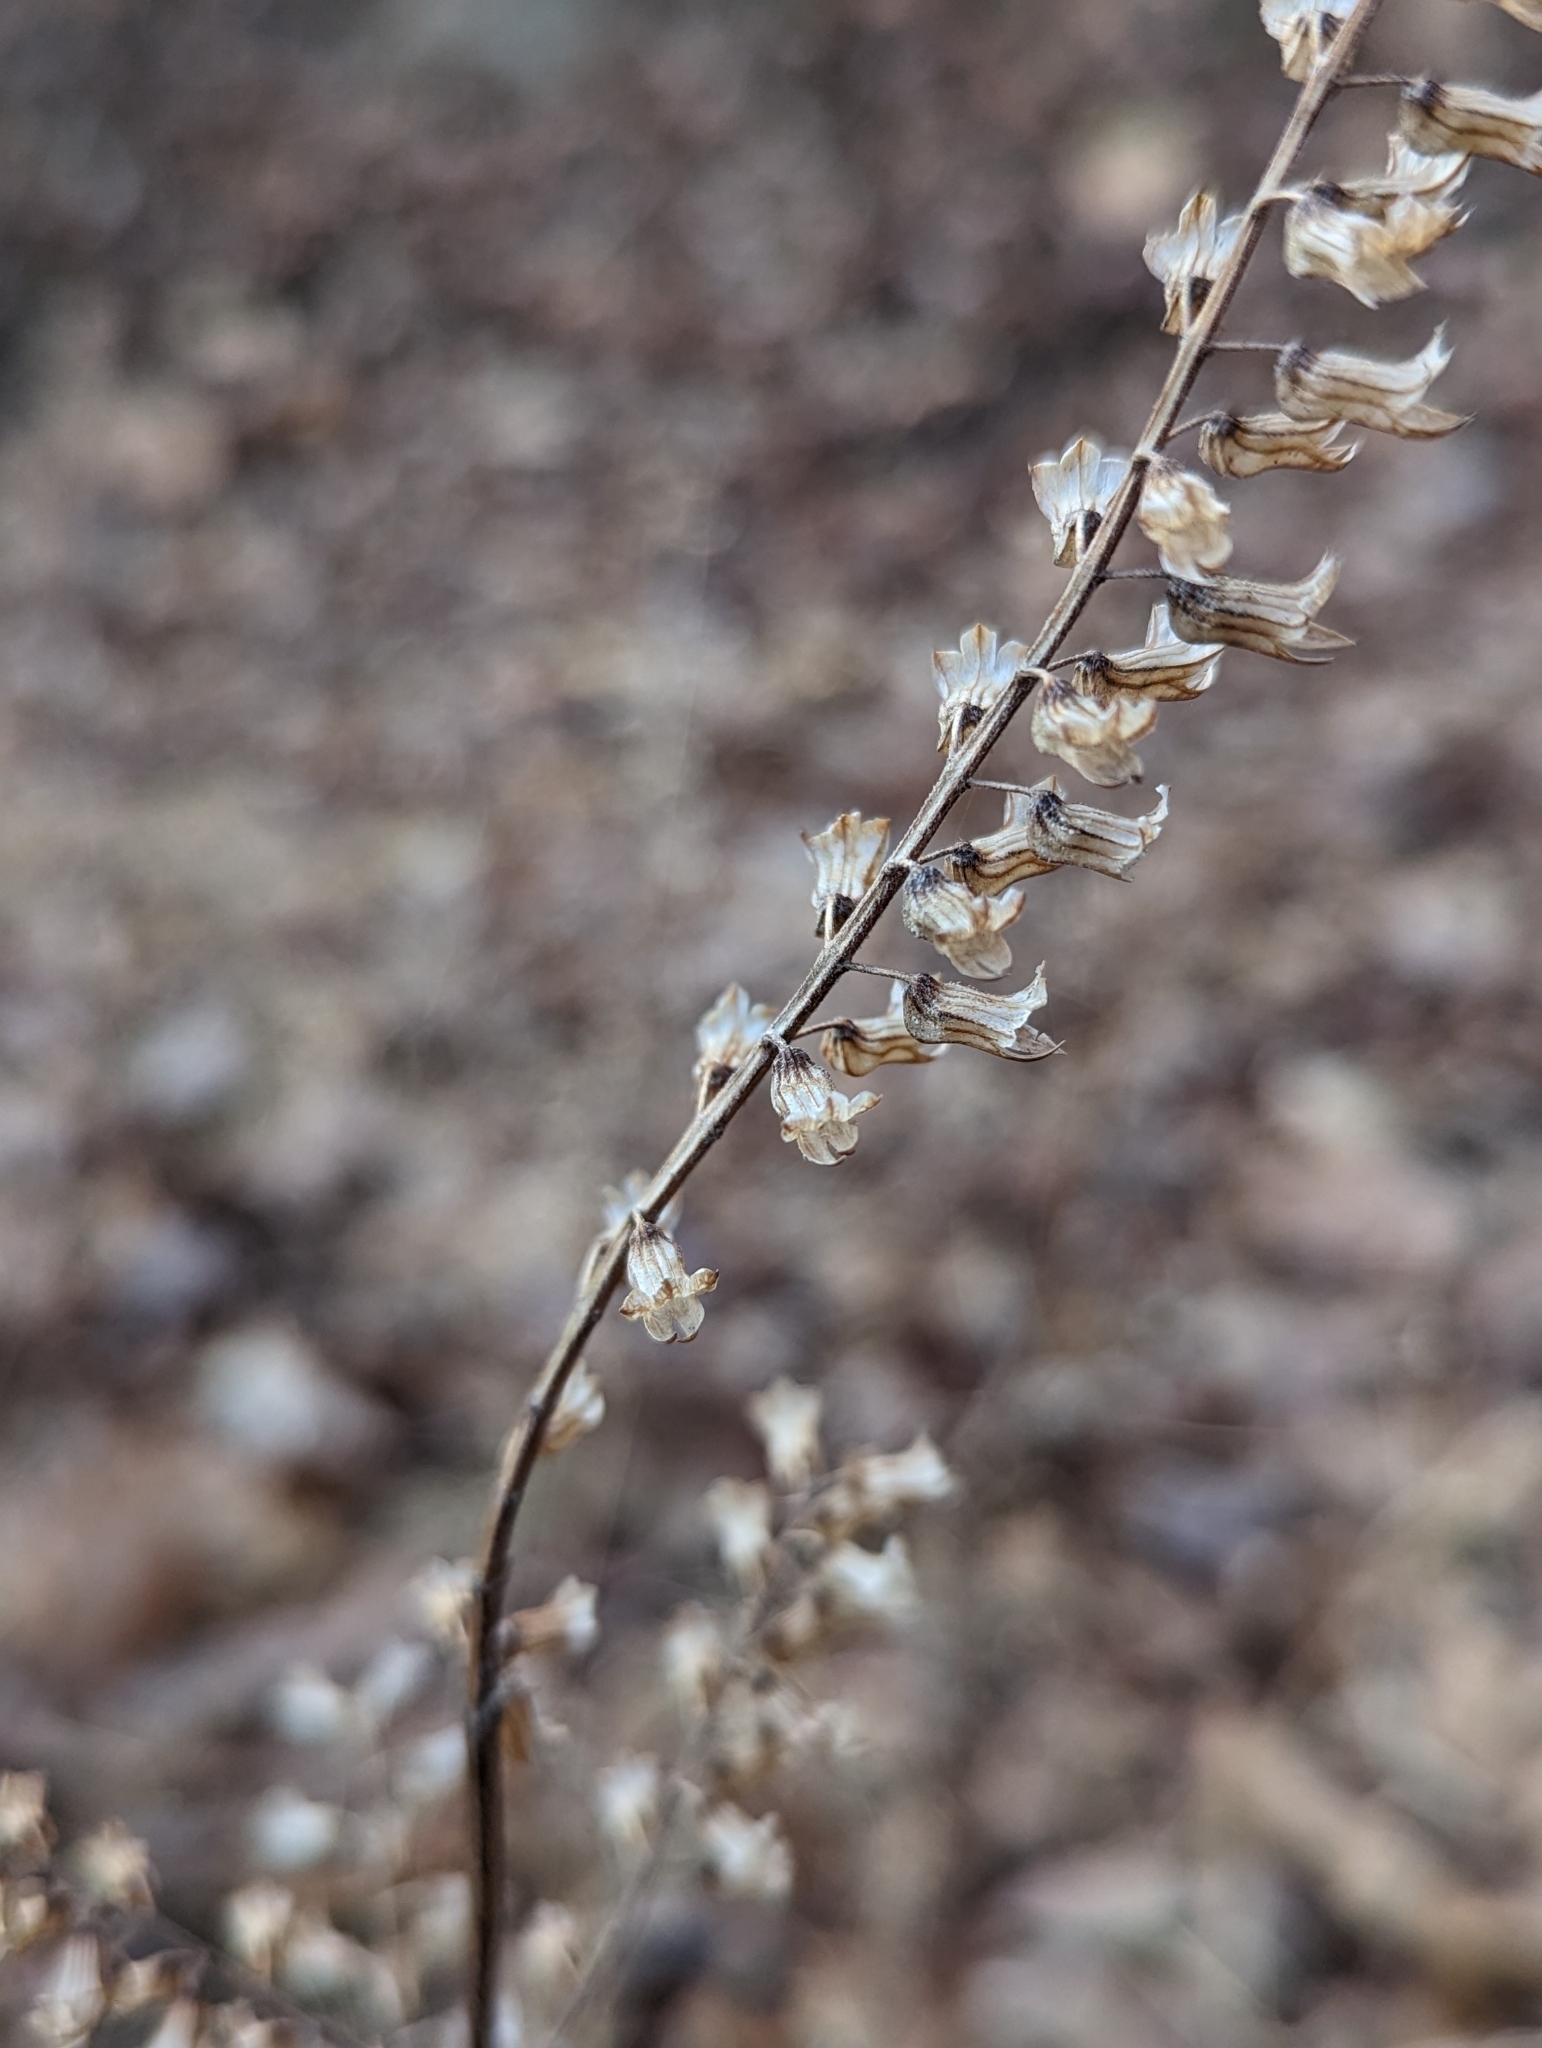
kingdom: Plantae
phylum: Tracheophyta
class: Magnoliopsida
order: Lamiales
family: Lamiaceae
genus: Perilla
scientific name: Perilla frutescens
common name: Perilla
